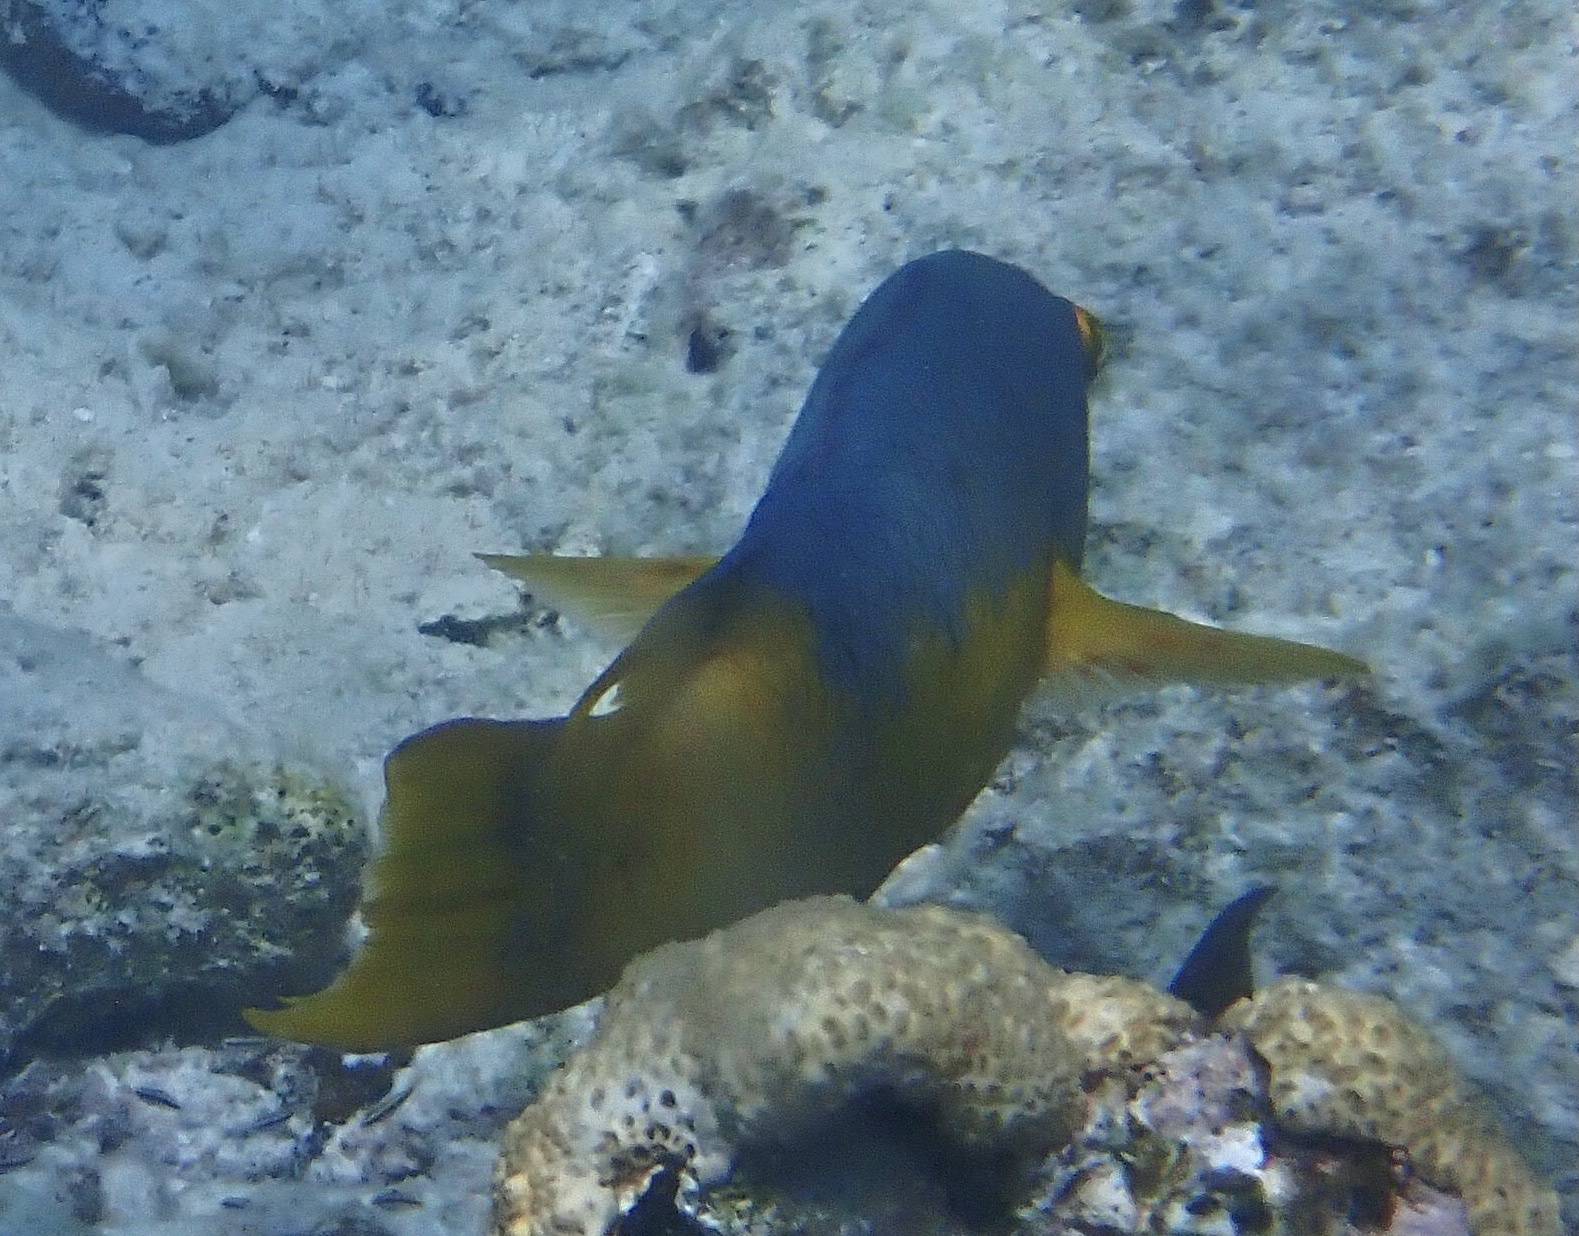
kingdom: Animalia
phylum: Chordata
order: Perciformes
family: Labridae
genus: Bodianus
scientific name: Bodianus rufus
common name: Spanish hogfish
